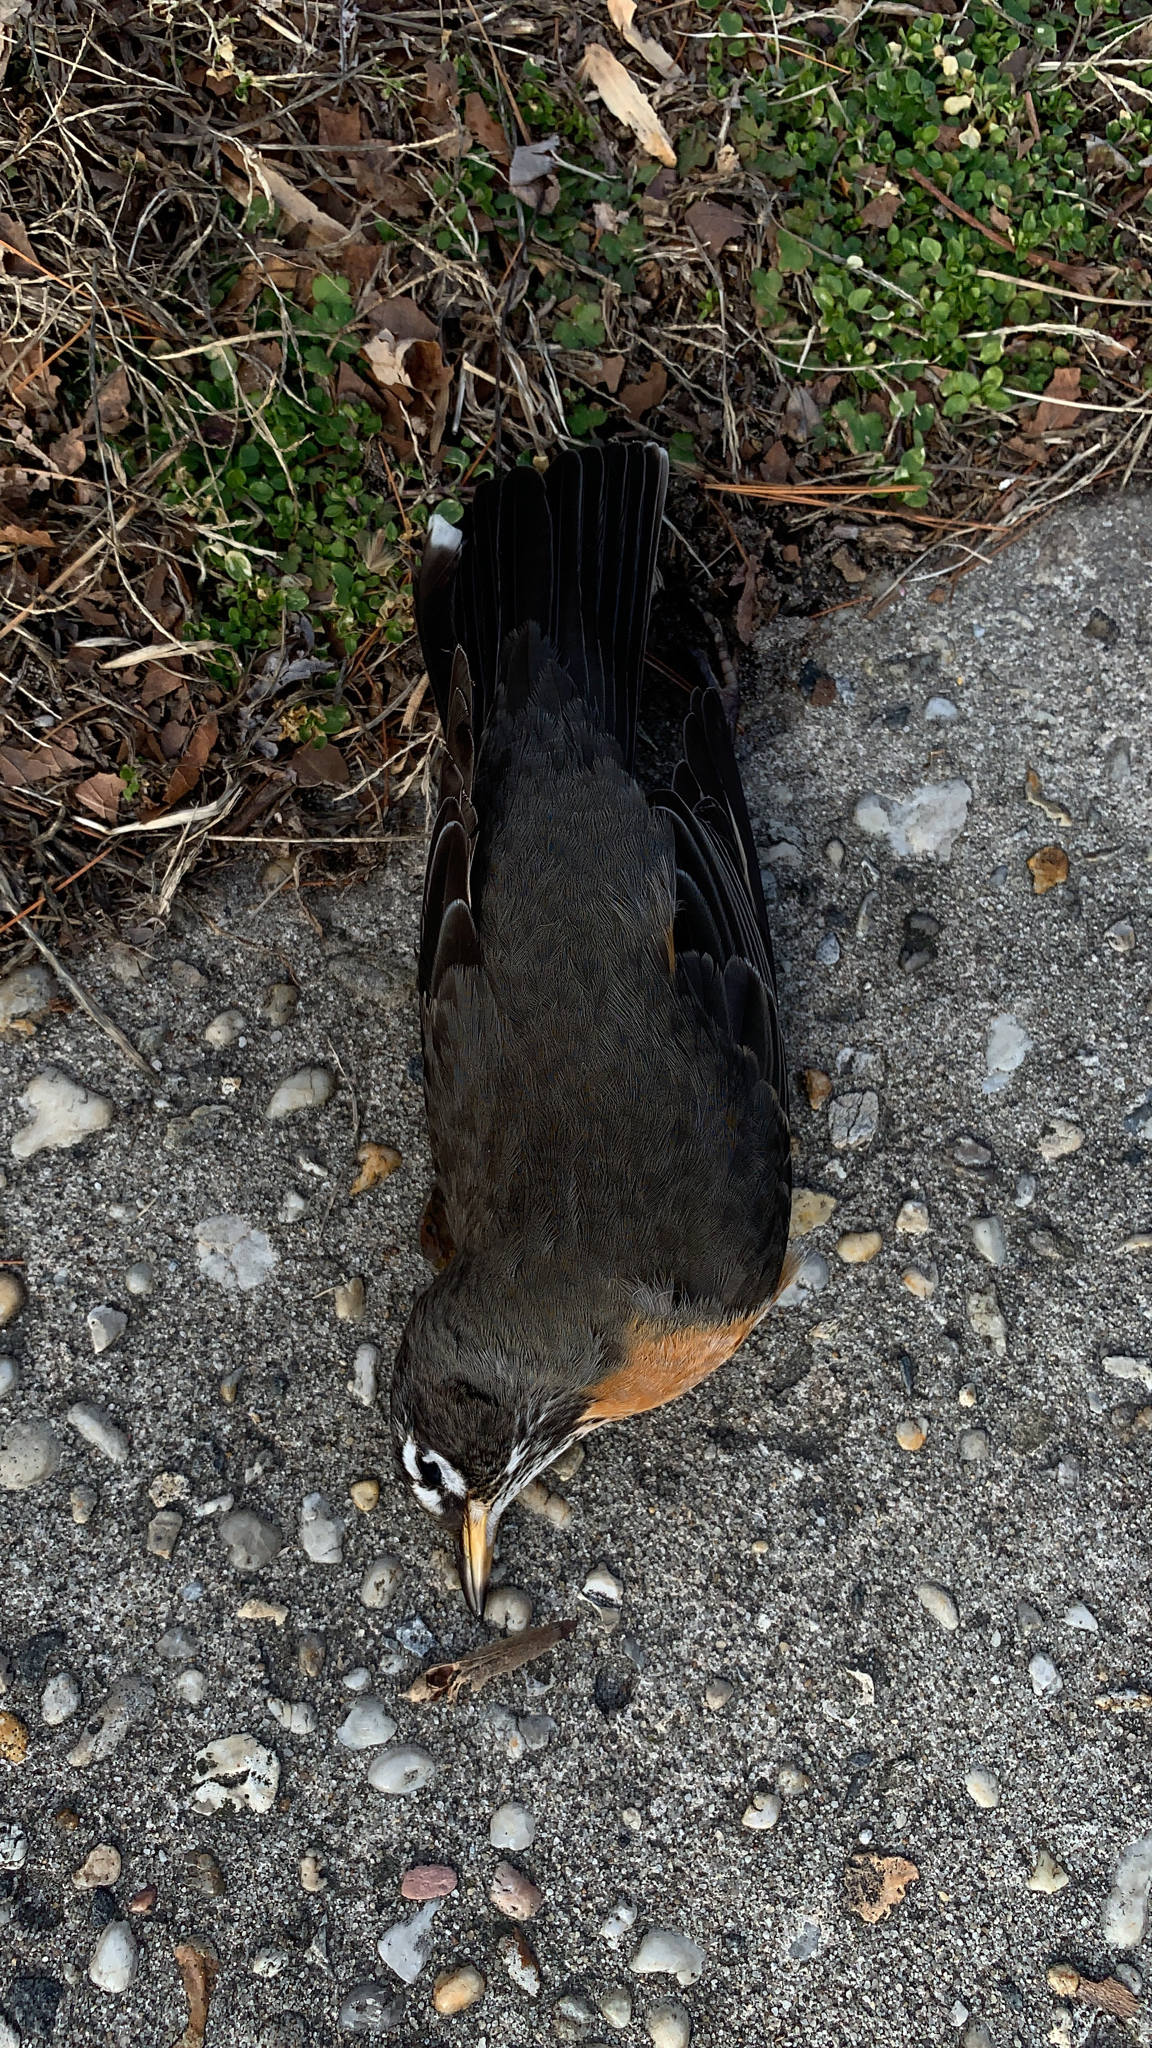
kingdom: Animalia
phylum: Chordata
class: Aves
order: Passeriformes
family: Turdidae
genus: Turdus
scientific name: Turdus migratorius
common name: American robin
